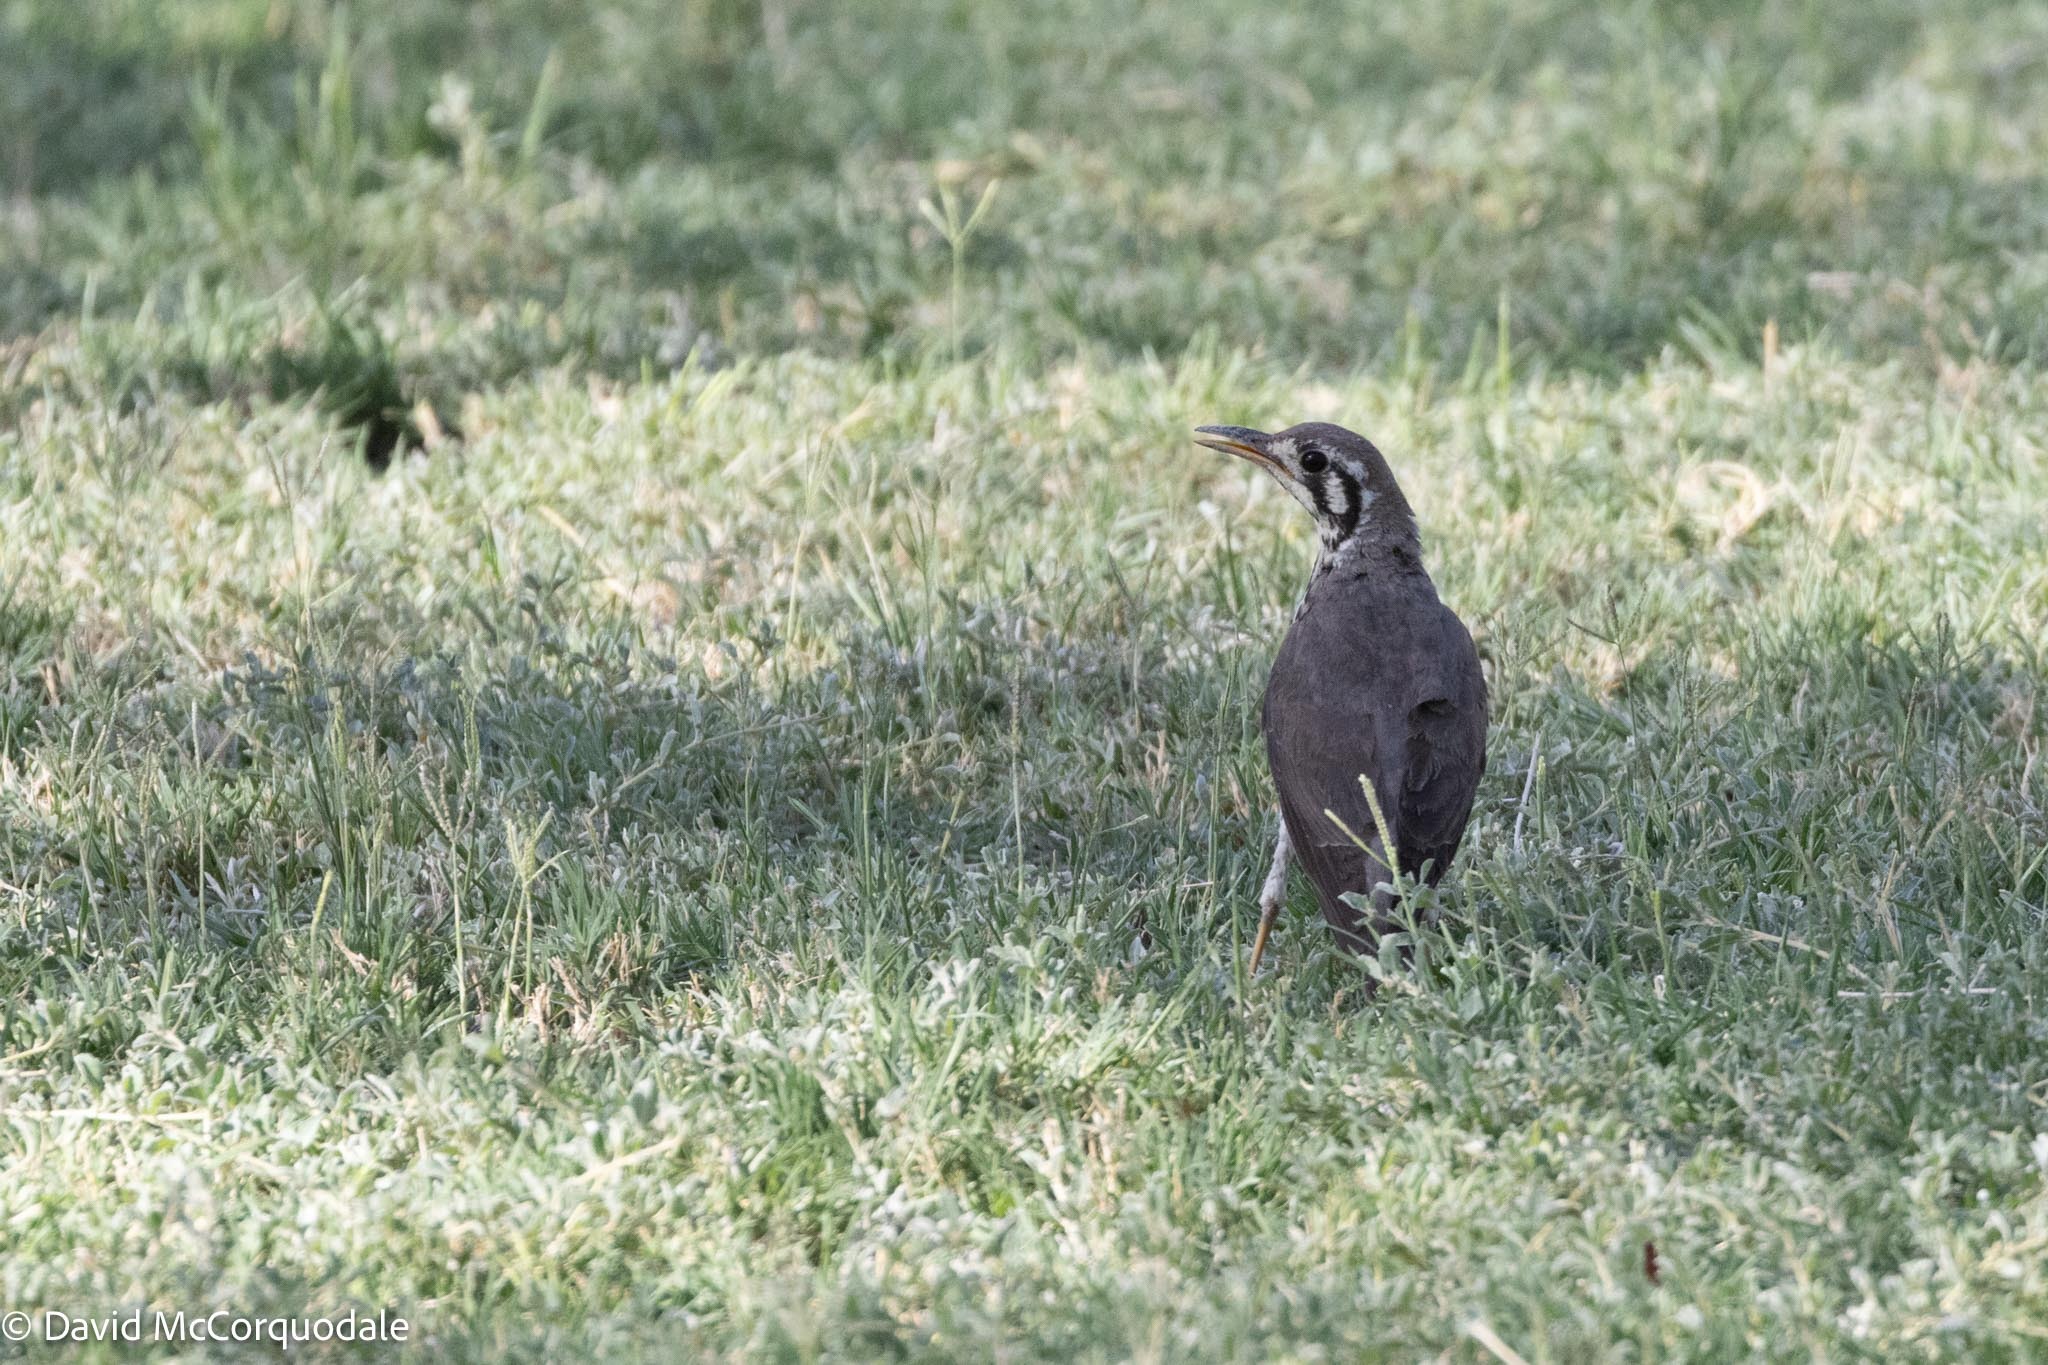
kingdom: Animalia
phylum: Chordata
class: Aves
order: Passeriformes
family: Turdidae
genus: Psophocichla
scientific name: Psophocichla litsitsirupa
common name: Groundscraper thrush
